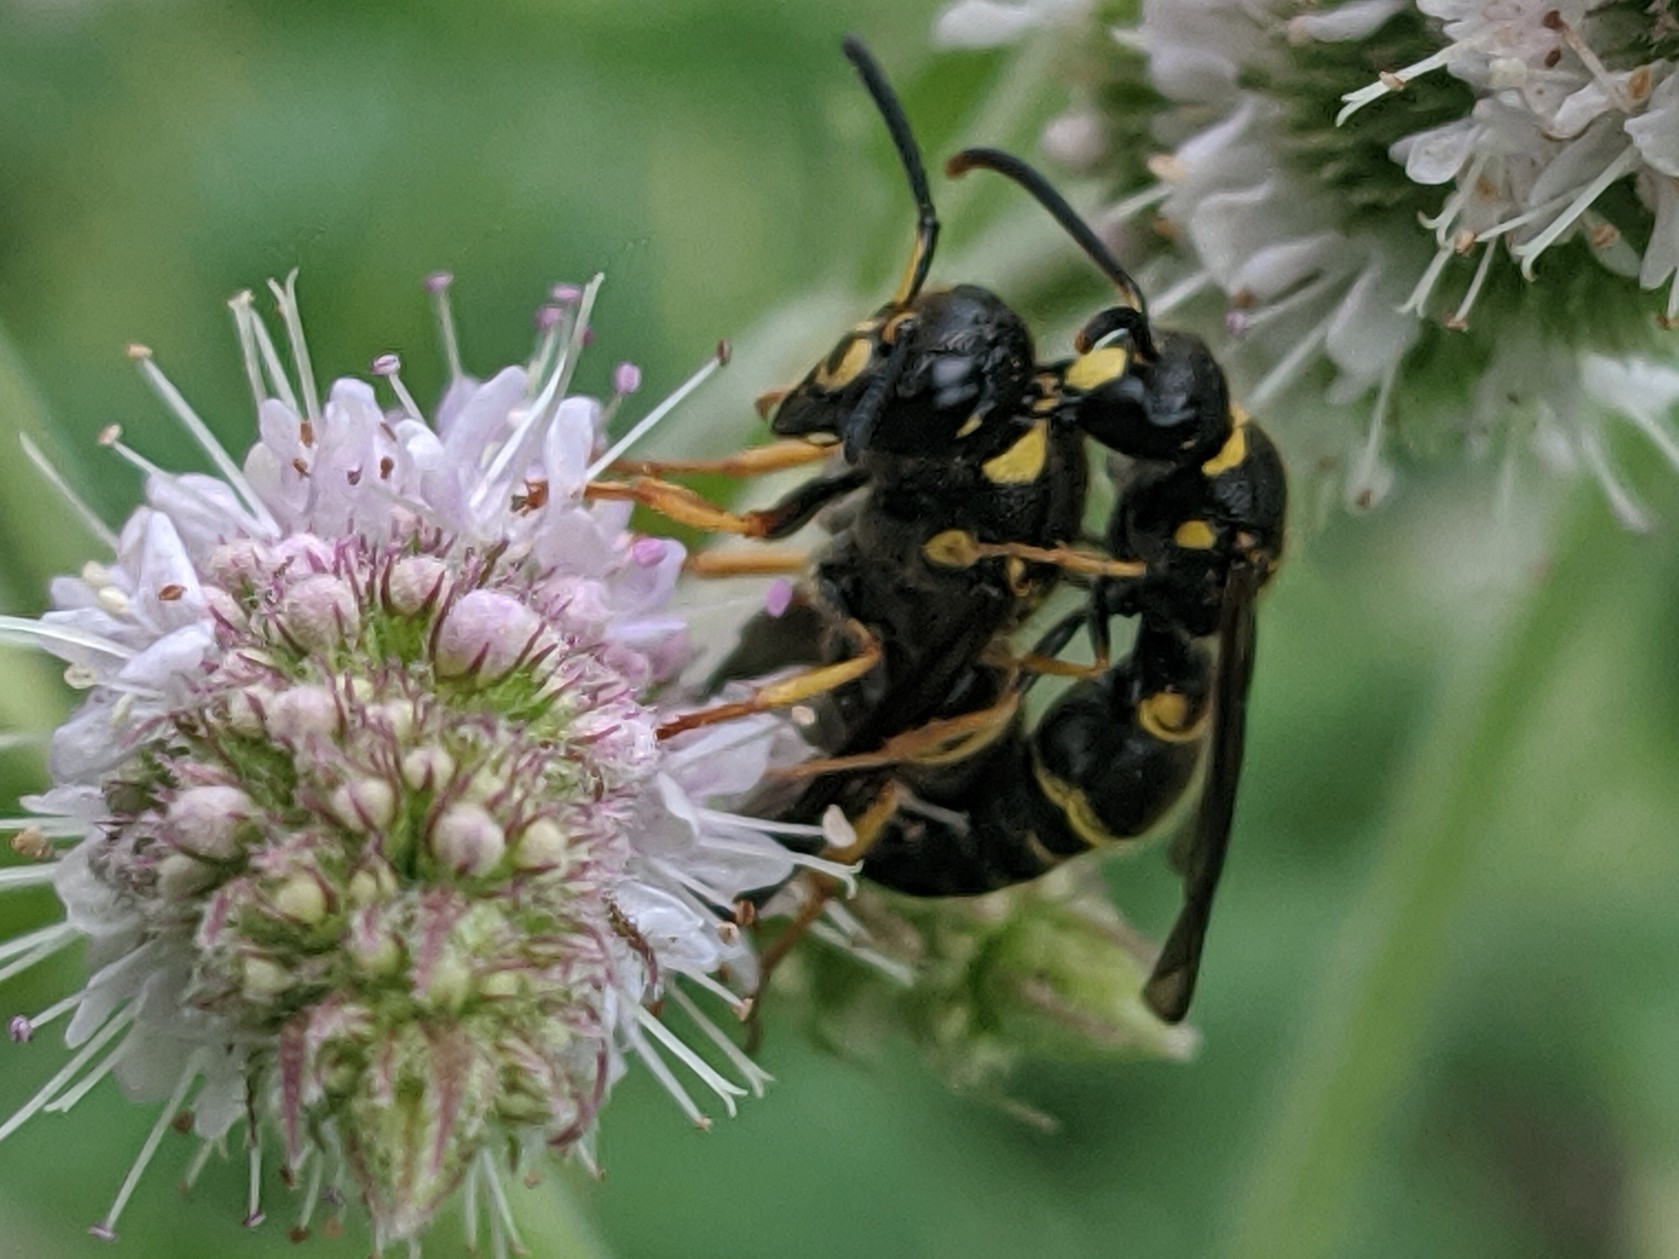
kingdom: Animalia
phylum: Arthropoda
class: Insecta
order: Hymenoptera
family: Vespidae
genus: Ancistrocerus
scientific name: Ancistrocerus campestris
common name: Smiling mason wasp
